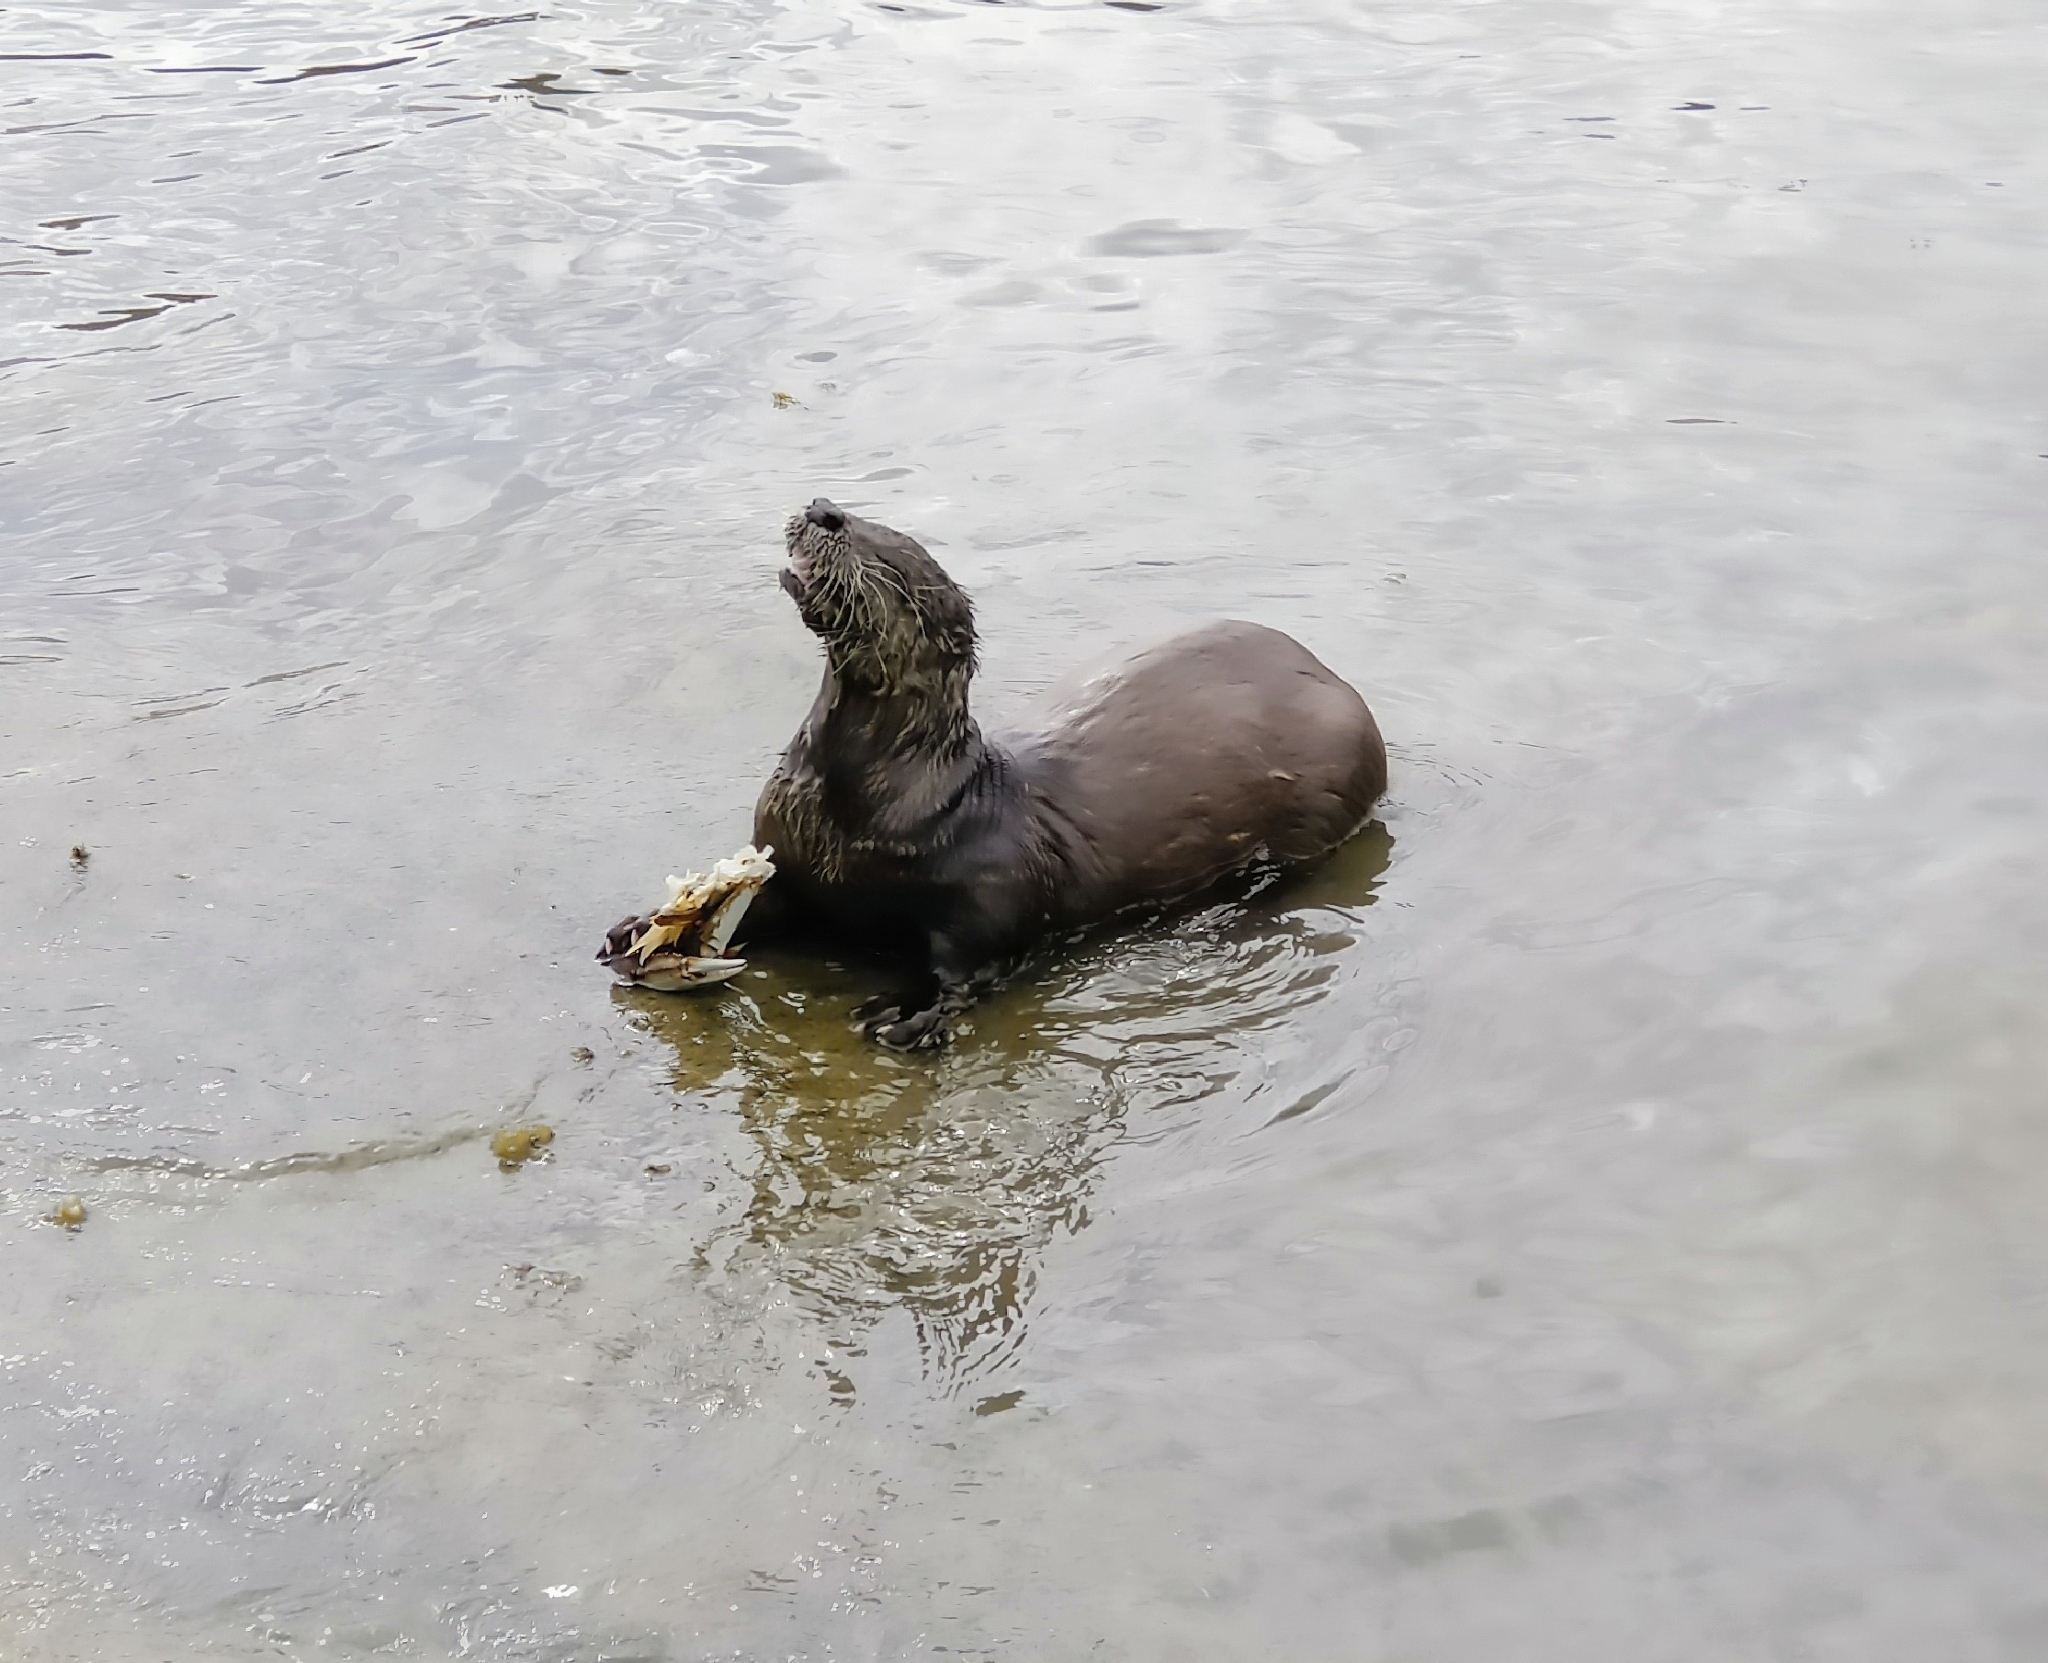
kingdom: Animalia
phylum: Chordata
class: Mammalia
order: Carnivora
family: Mustelidae
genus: Lontra
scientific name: Lontra canadensis
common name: North american river otter
